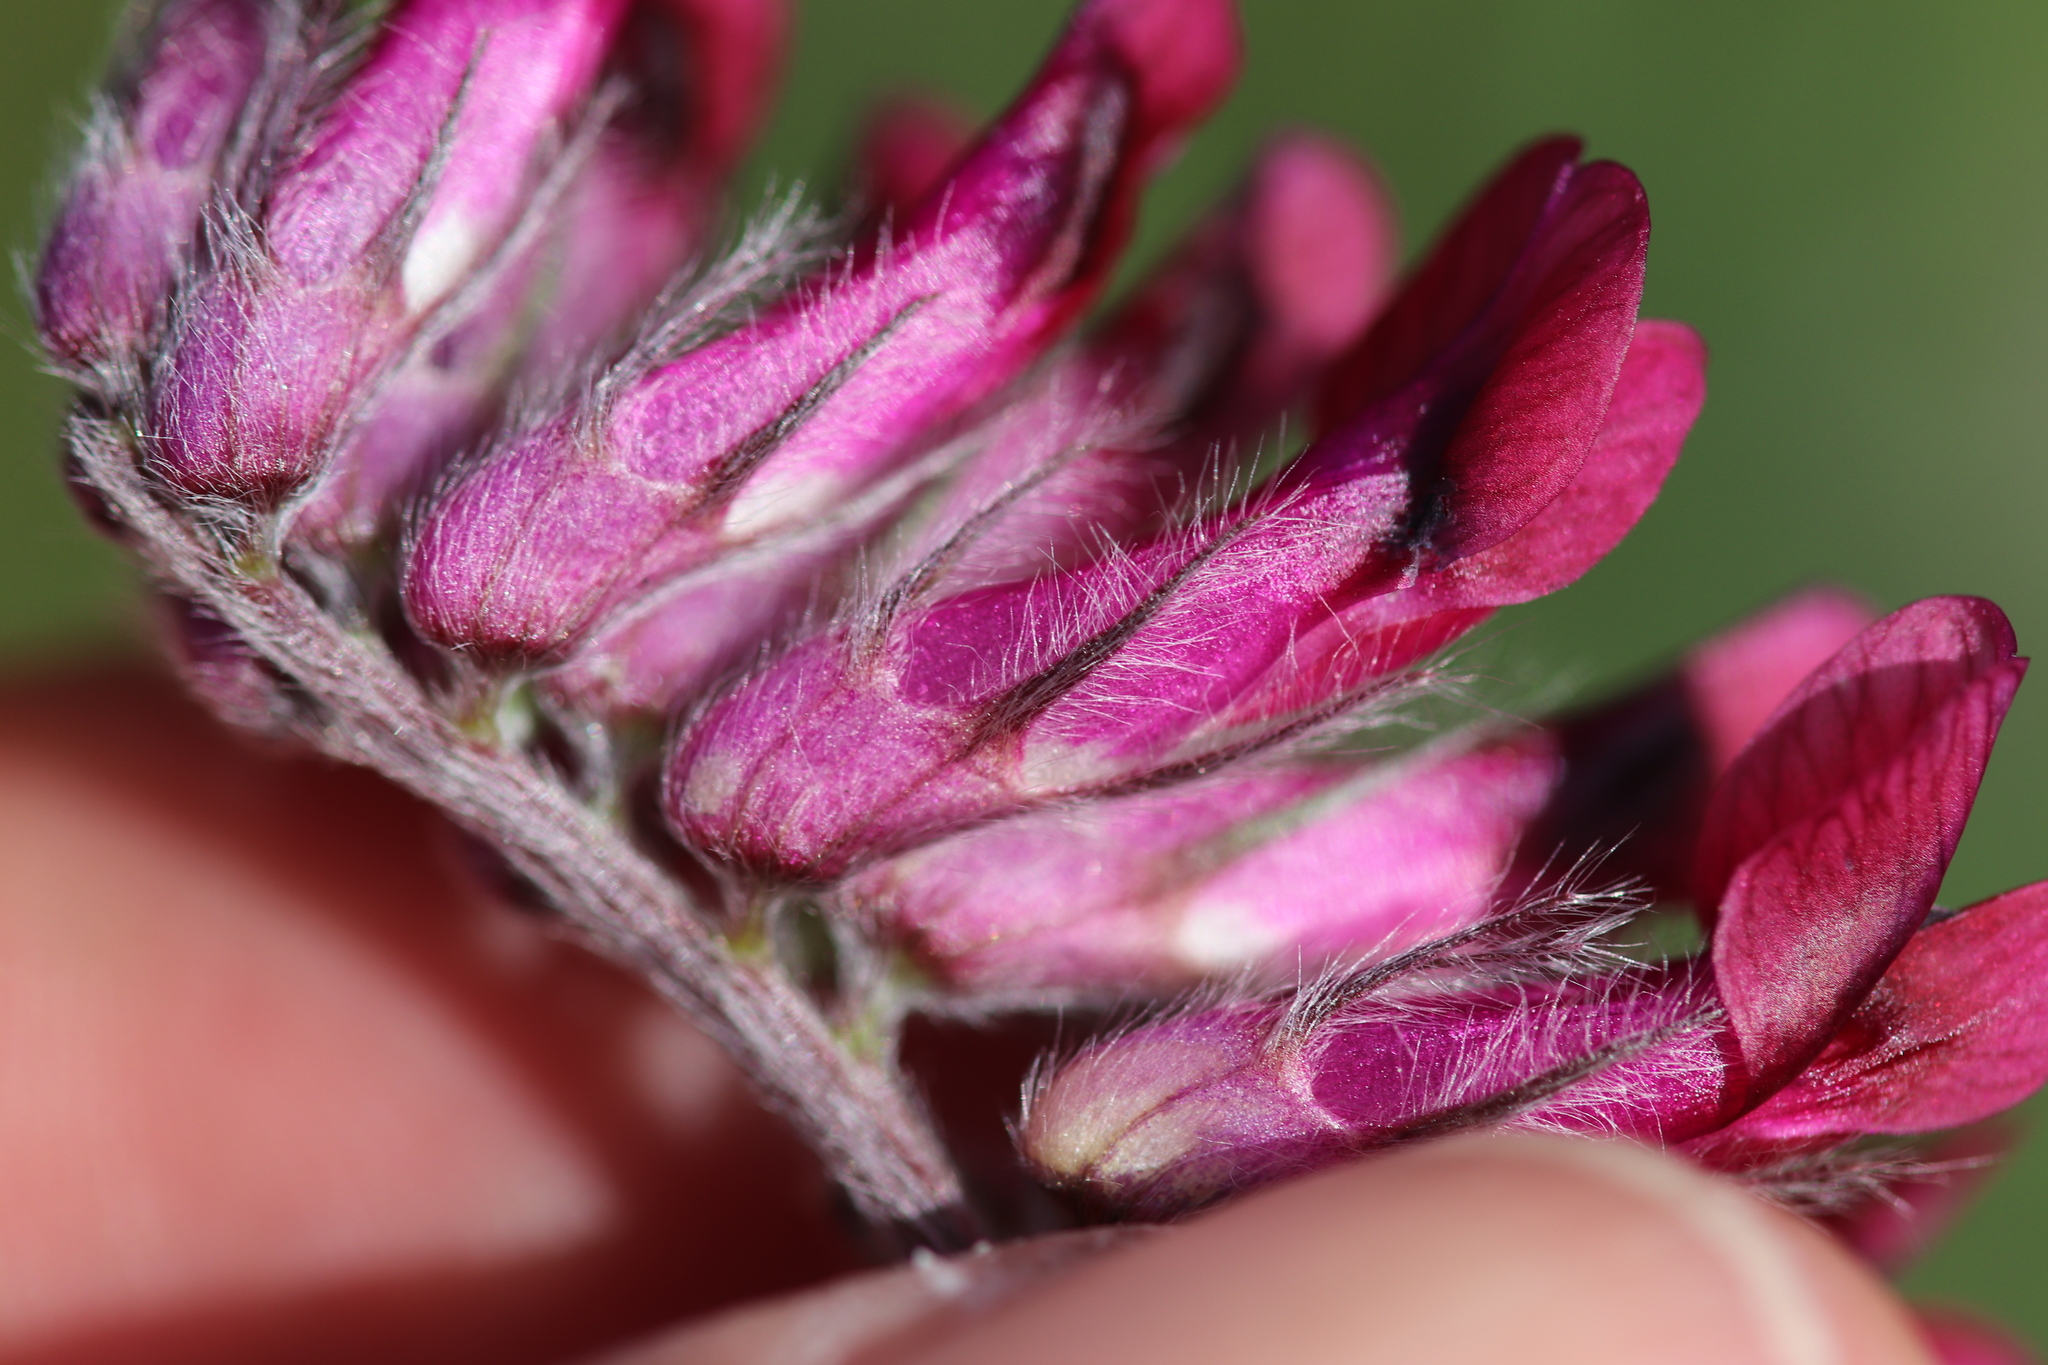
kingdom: Plantae
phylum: Tracheophyta
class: Magnoliopsida
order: Fabales
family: Fabaceae
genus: Vicia
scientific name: Vicia benghalensis
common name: Purple vetch
